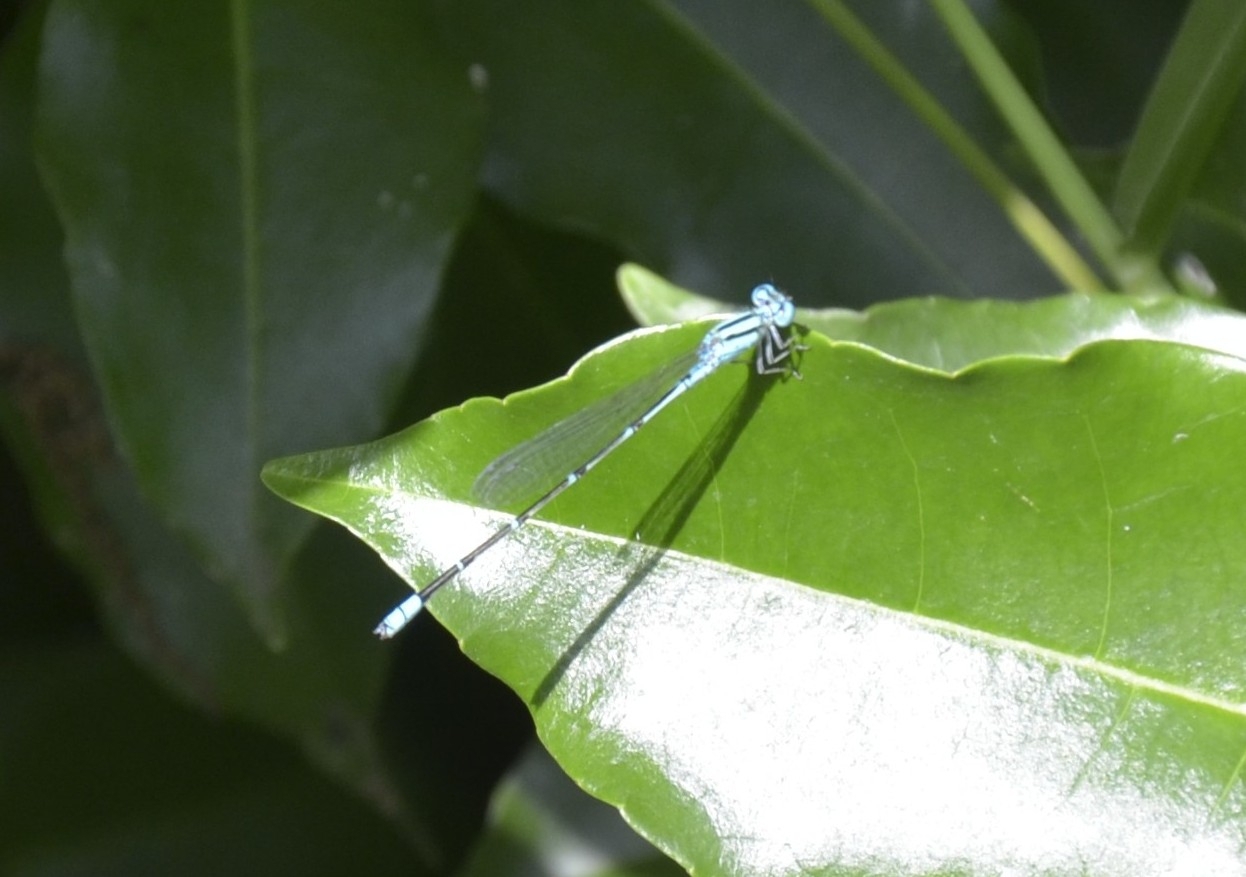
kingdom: Animalia
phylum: Arthropoda
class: Insecta
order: Odonata
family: Coenagrionidae
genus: Pseudagrion
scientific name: Pseudagrion microcephalum
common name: Blue riverdamsel
